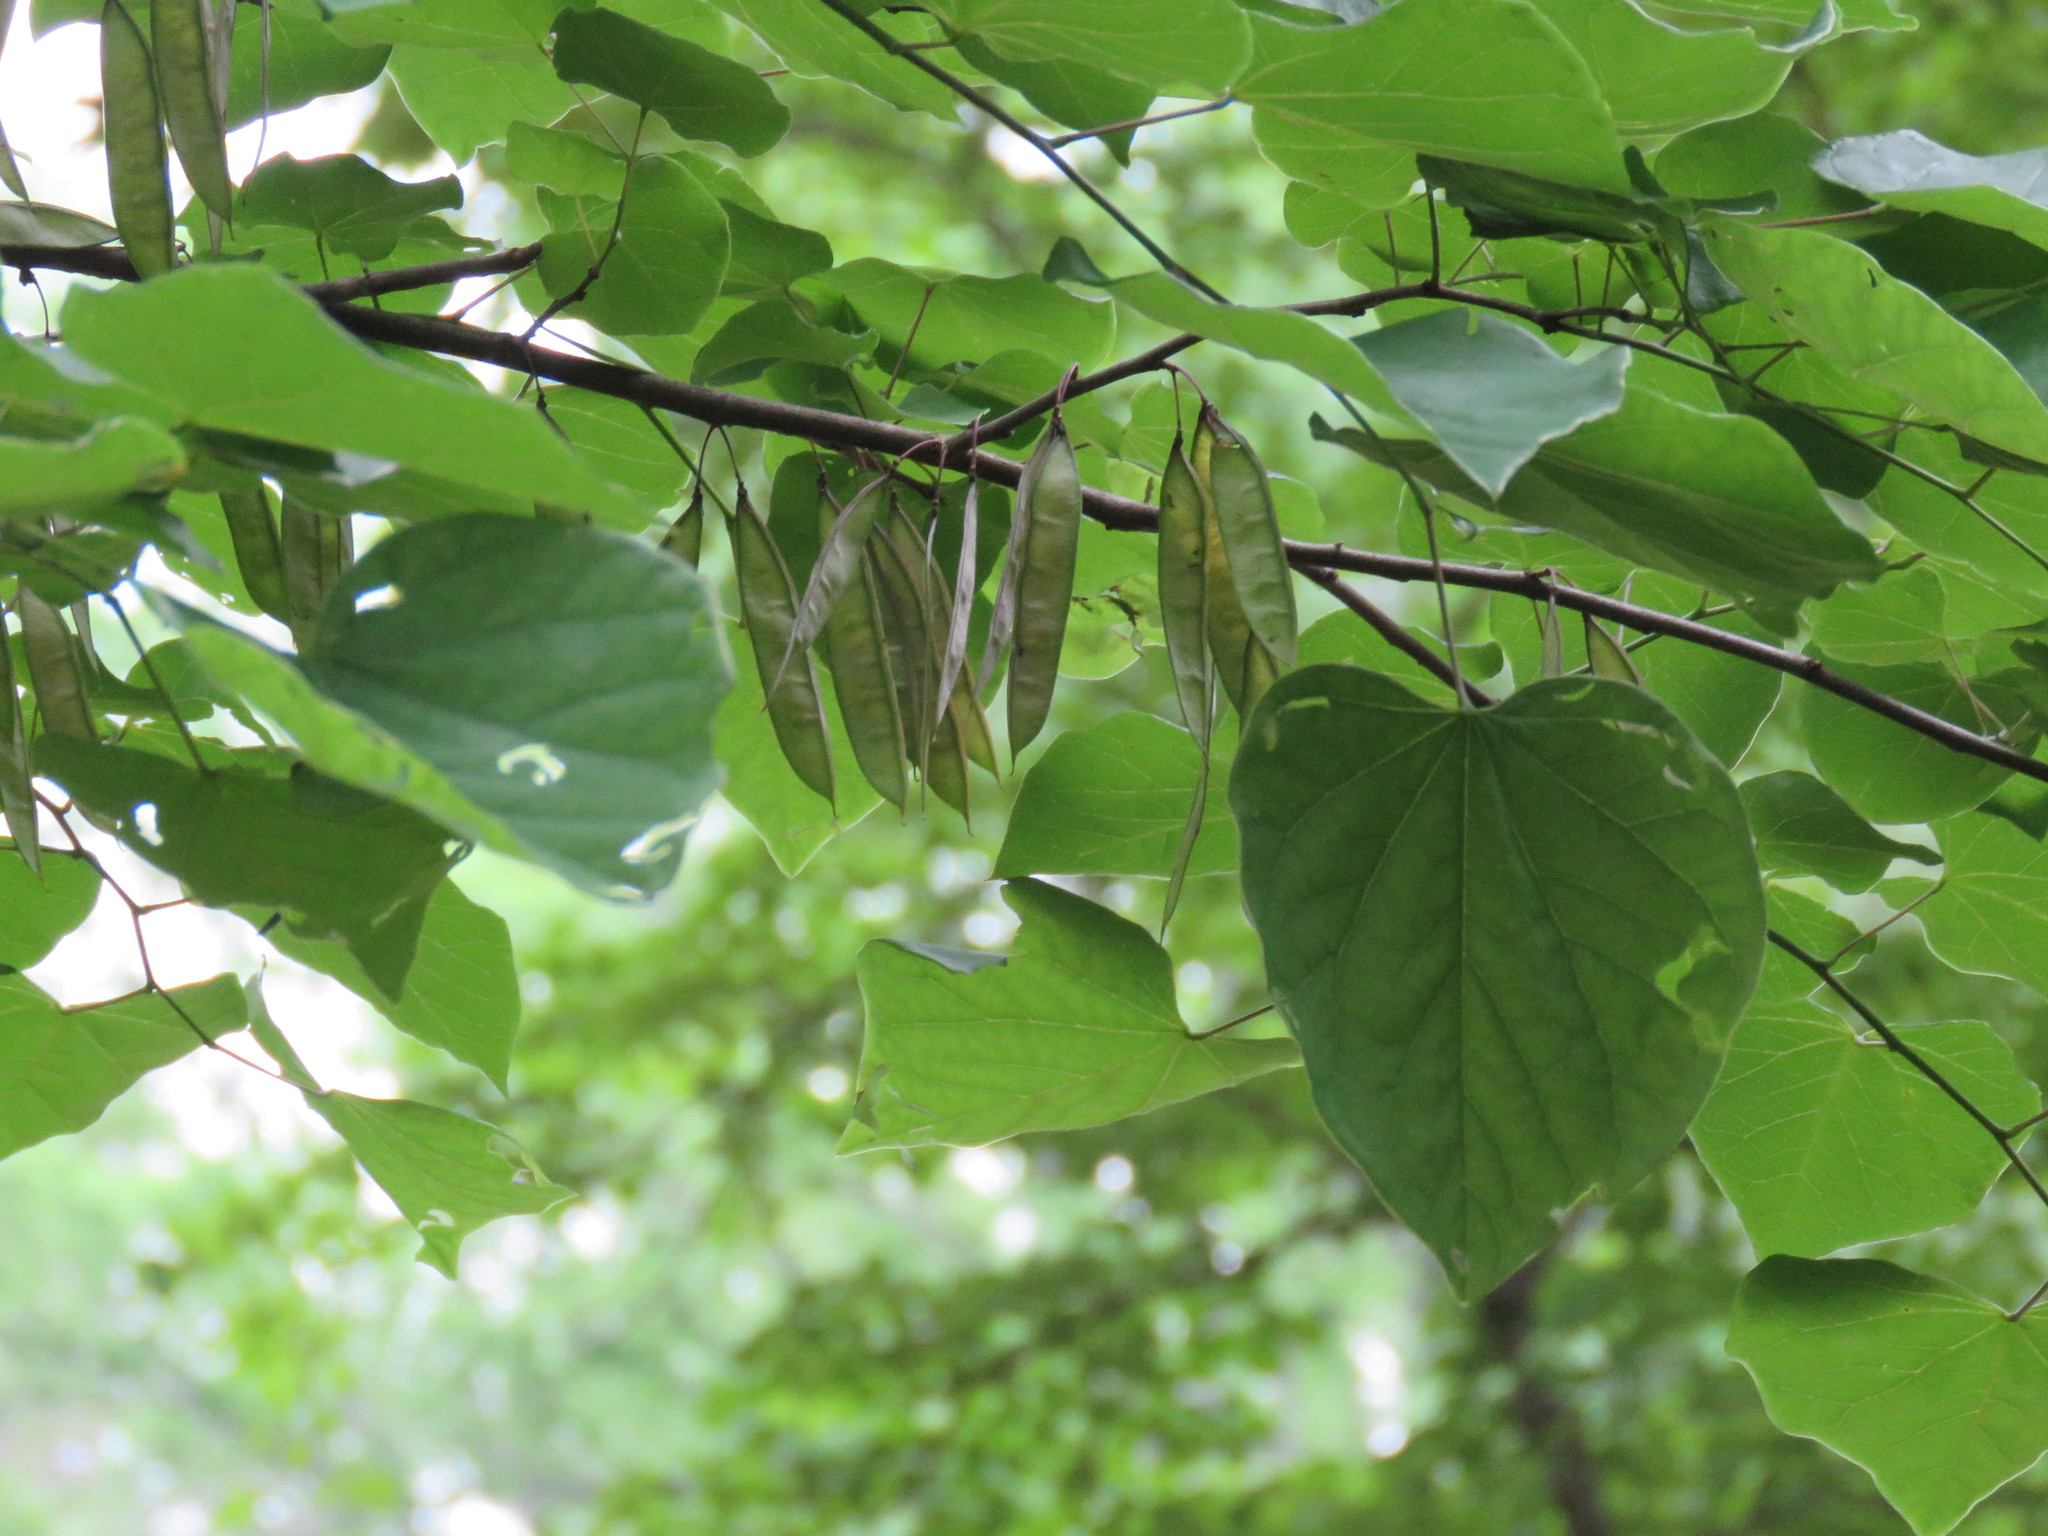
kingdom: Plantae
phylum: Tracheophyta
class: Magnoliopsida
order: Fabales
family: Fabaceae
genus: Cercis
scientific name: Cercis canadensis
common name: Eastern redbud
